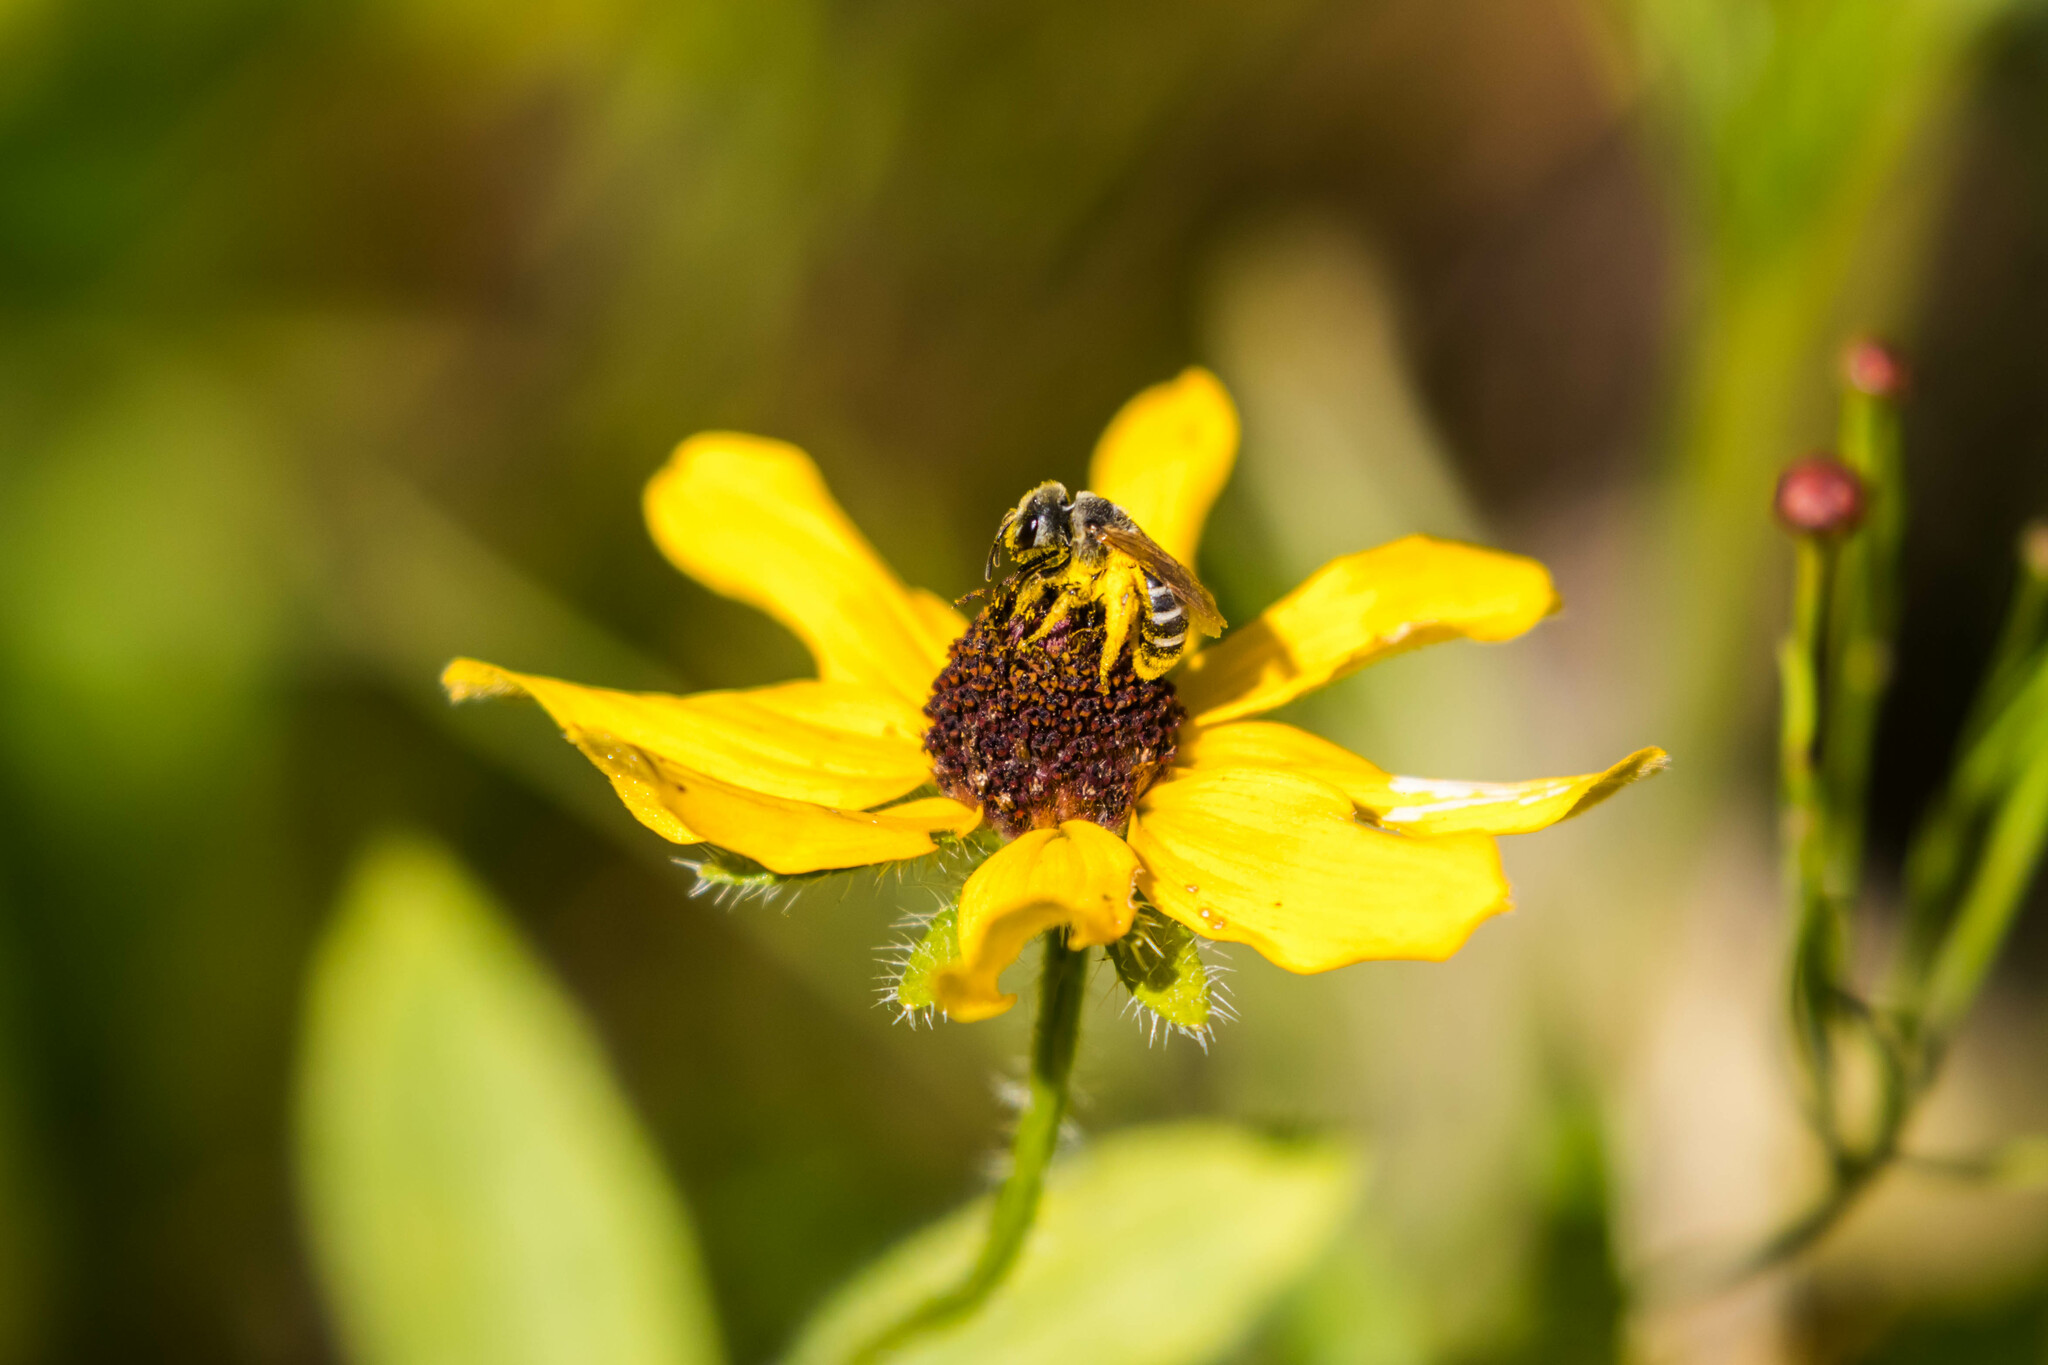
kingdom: Animalia
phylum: Arthropoda
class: Insecta
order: Hymenoptera
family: Halictidae
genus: Halictus
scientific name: Halictus ligatus
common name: Ligated furrow bee
